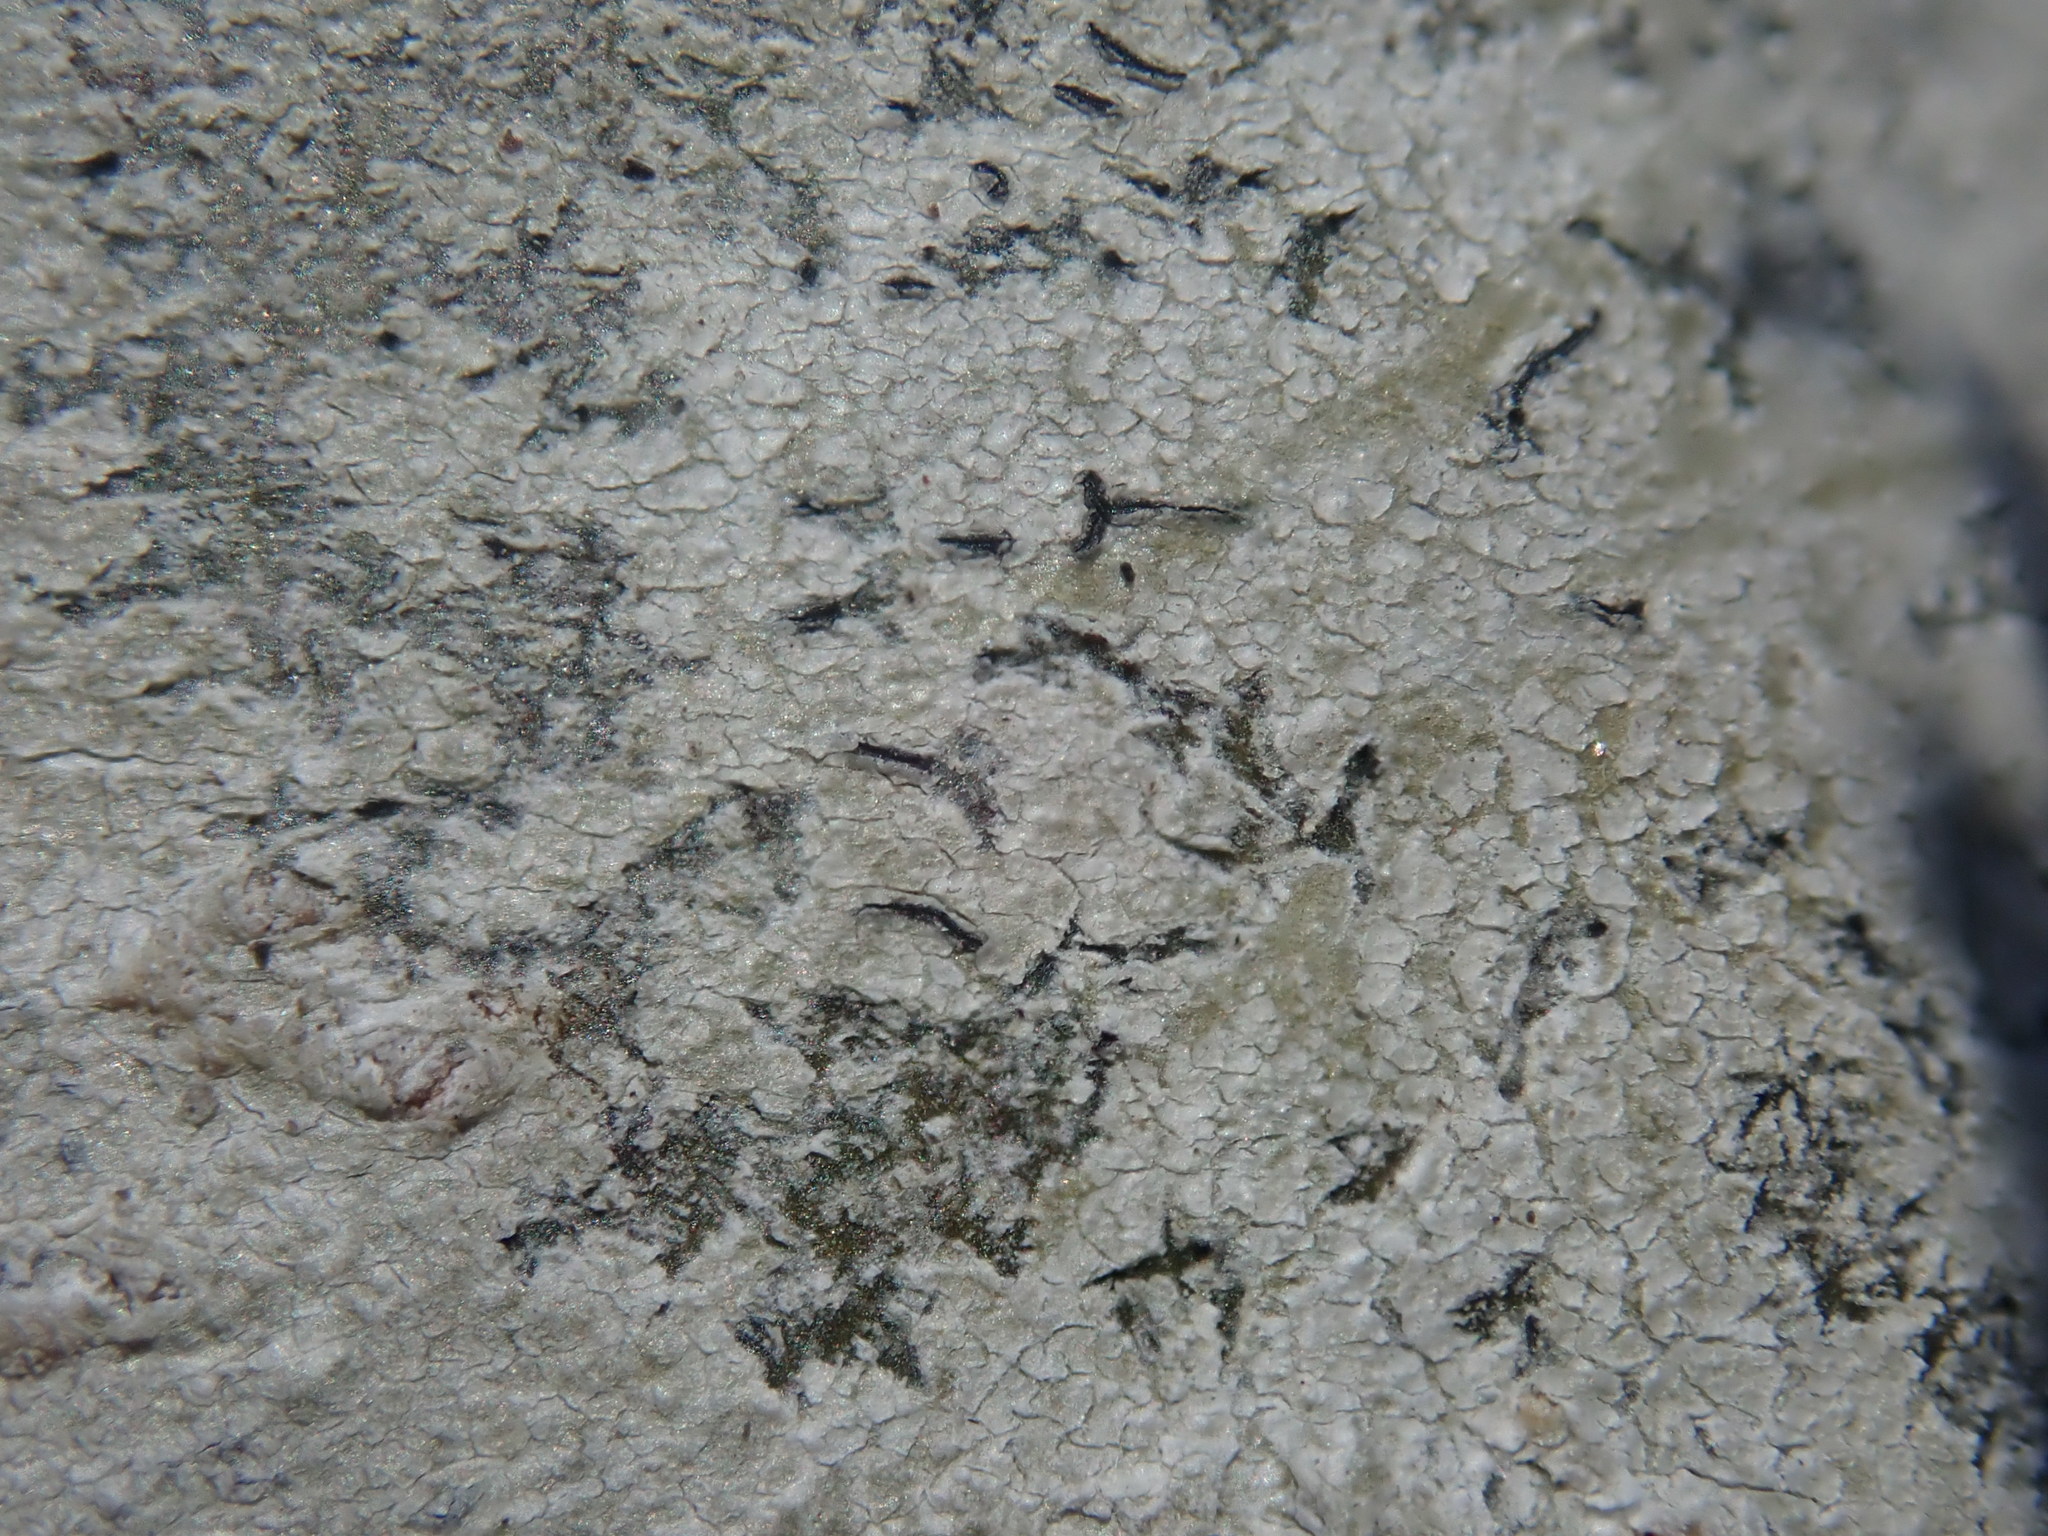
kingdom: Fungi
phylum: Ascomycota
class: Lecanoromycetes
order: Ostropales
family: Graphidaceae
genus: Graphis
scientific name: Graphis scripta
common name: Script lichen
